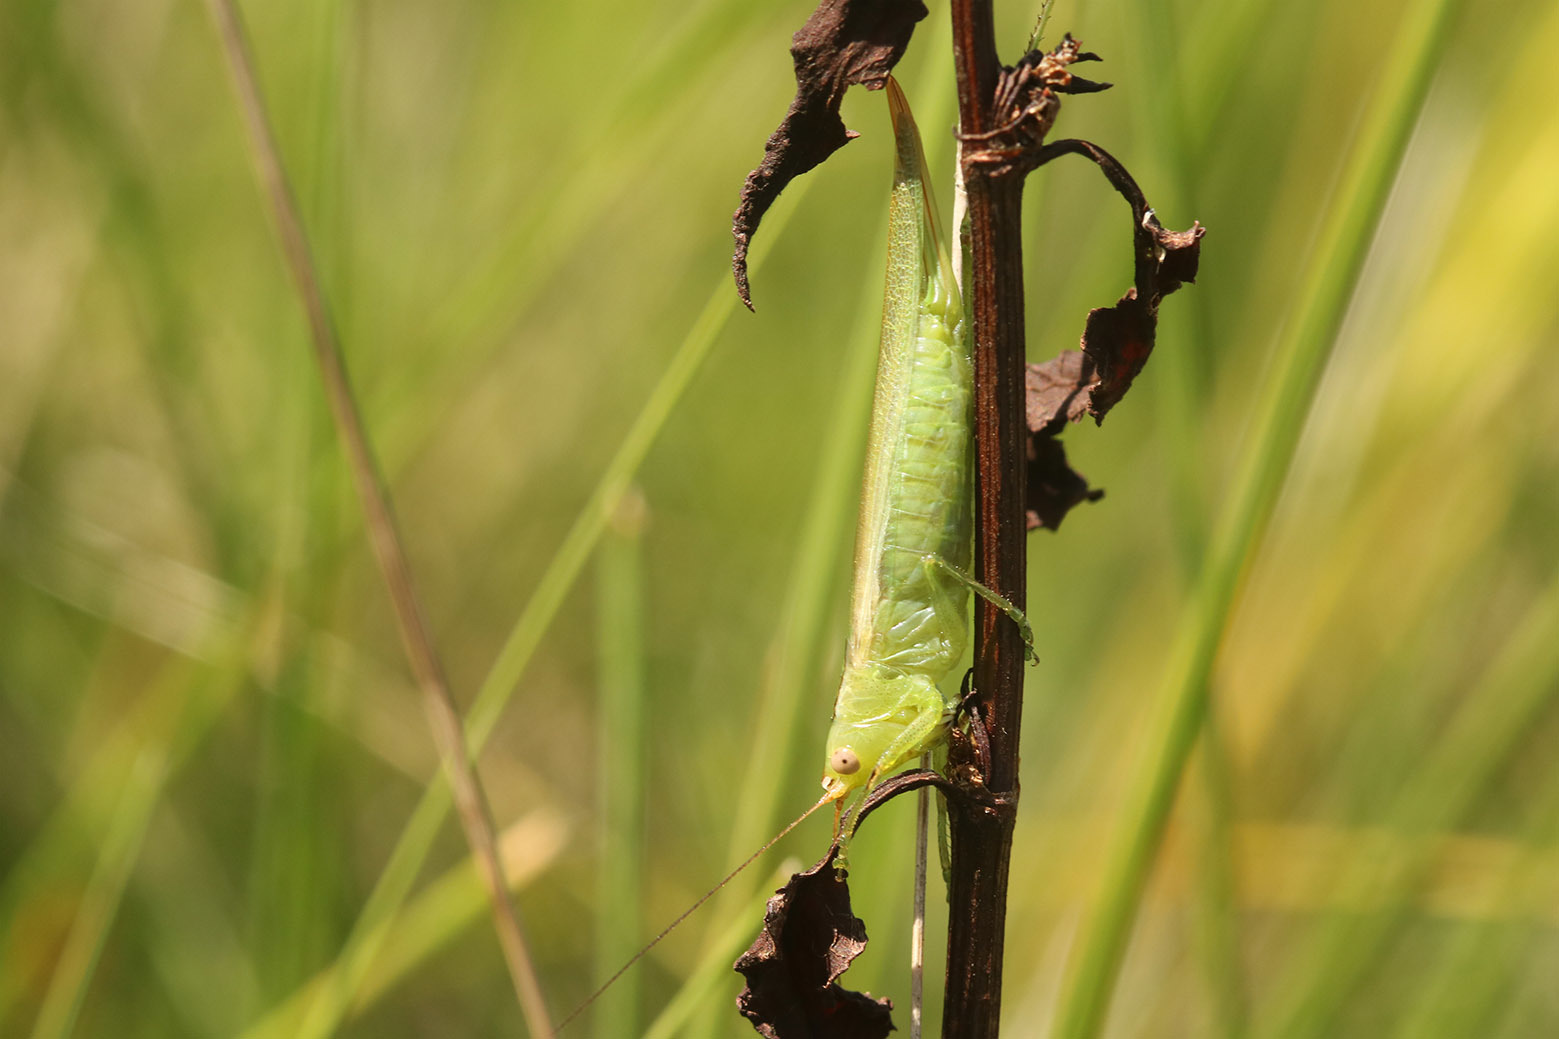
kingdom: Animalia
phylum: Arthropoda
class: Insecta
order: Orthoptera
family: Tettigoniidae
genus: Conocephalus
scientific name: Conocephalus longipes
